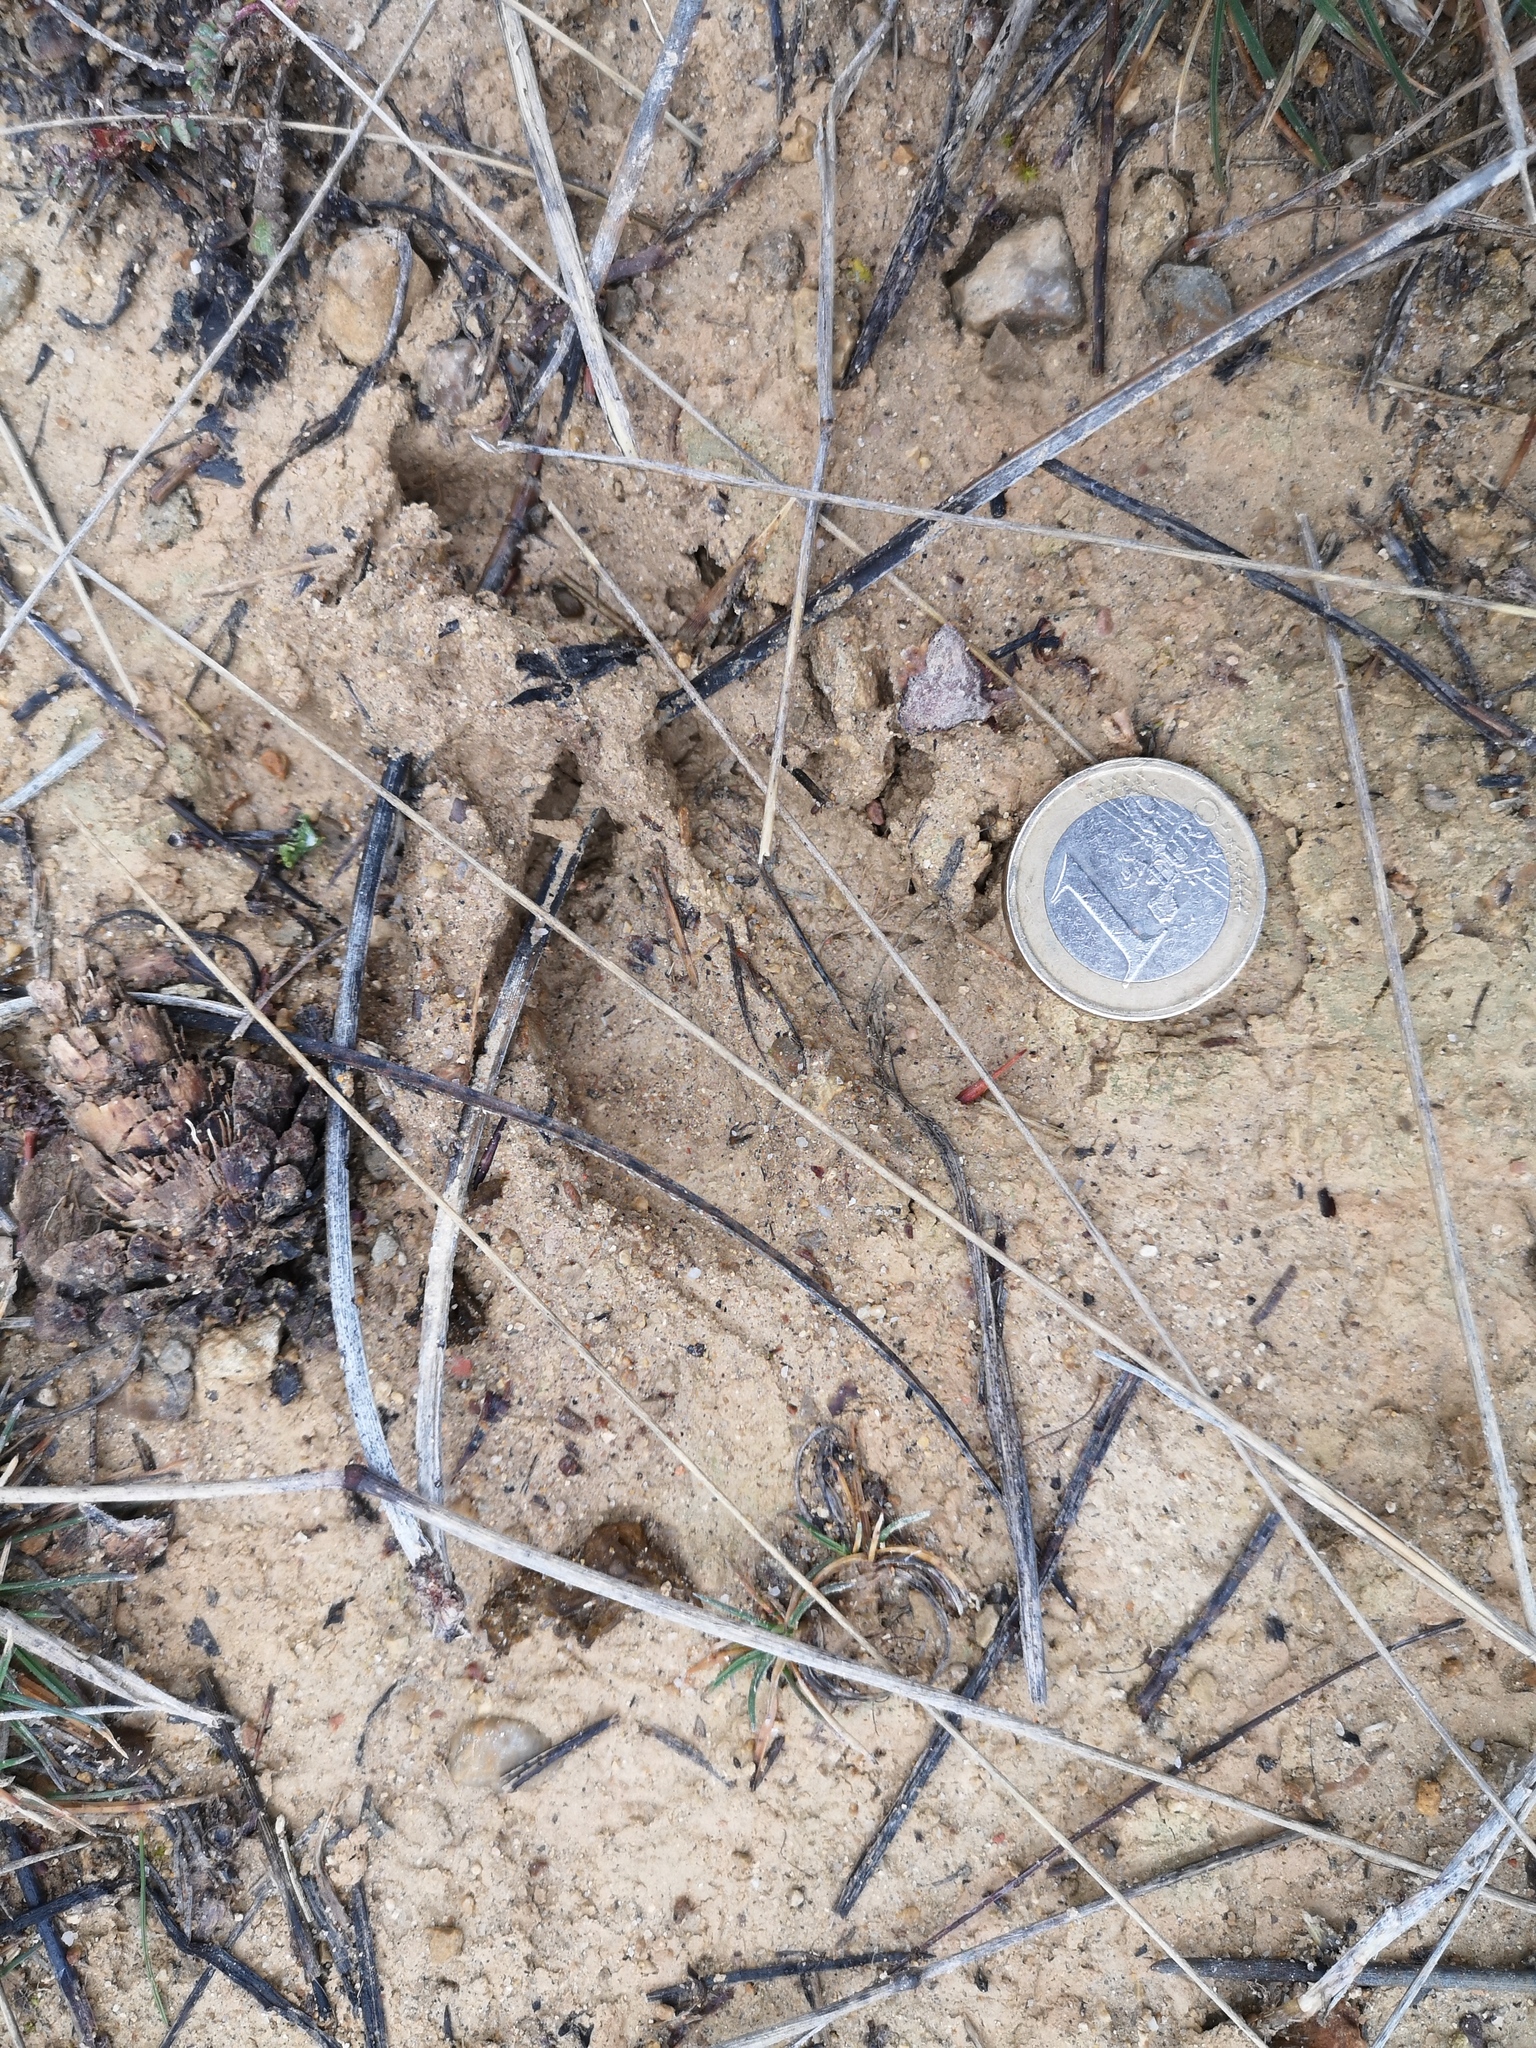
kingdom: Animalia
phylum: Chordata
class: Mammalia
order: Artiodactyla
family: Cervidae
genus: Capreolus
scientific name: Capreolus capreolus
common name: Western roe deer
